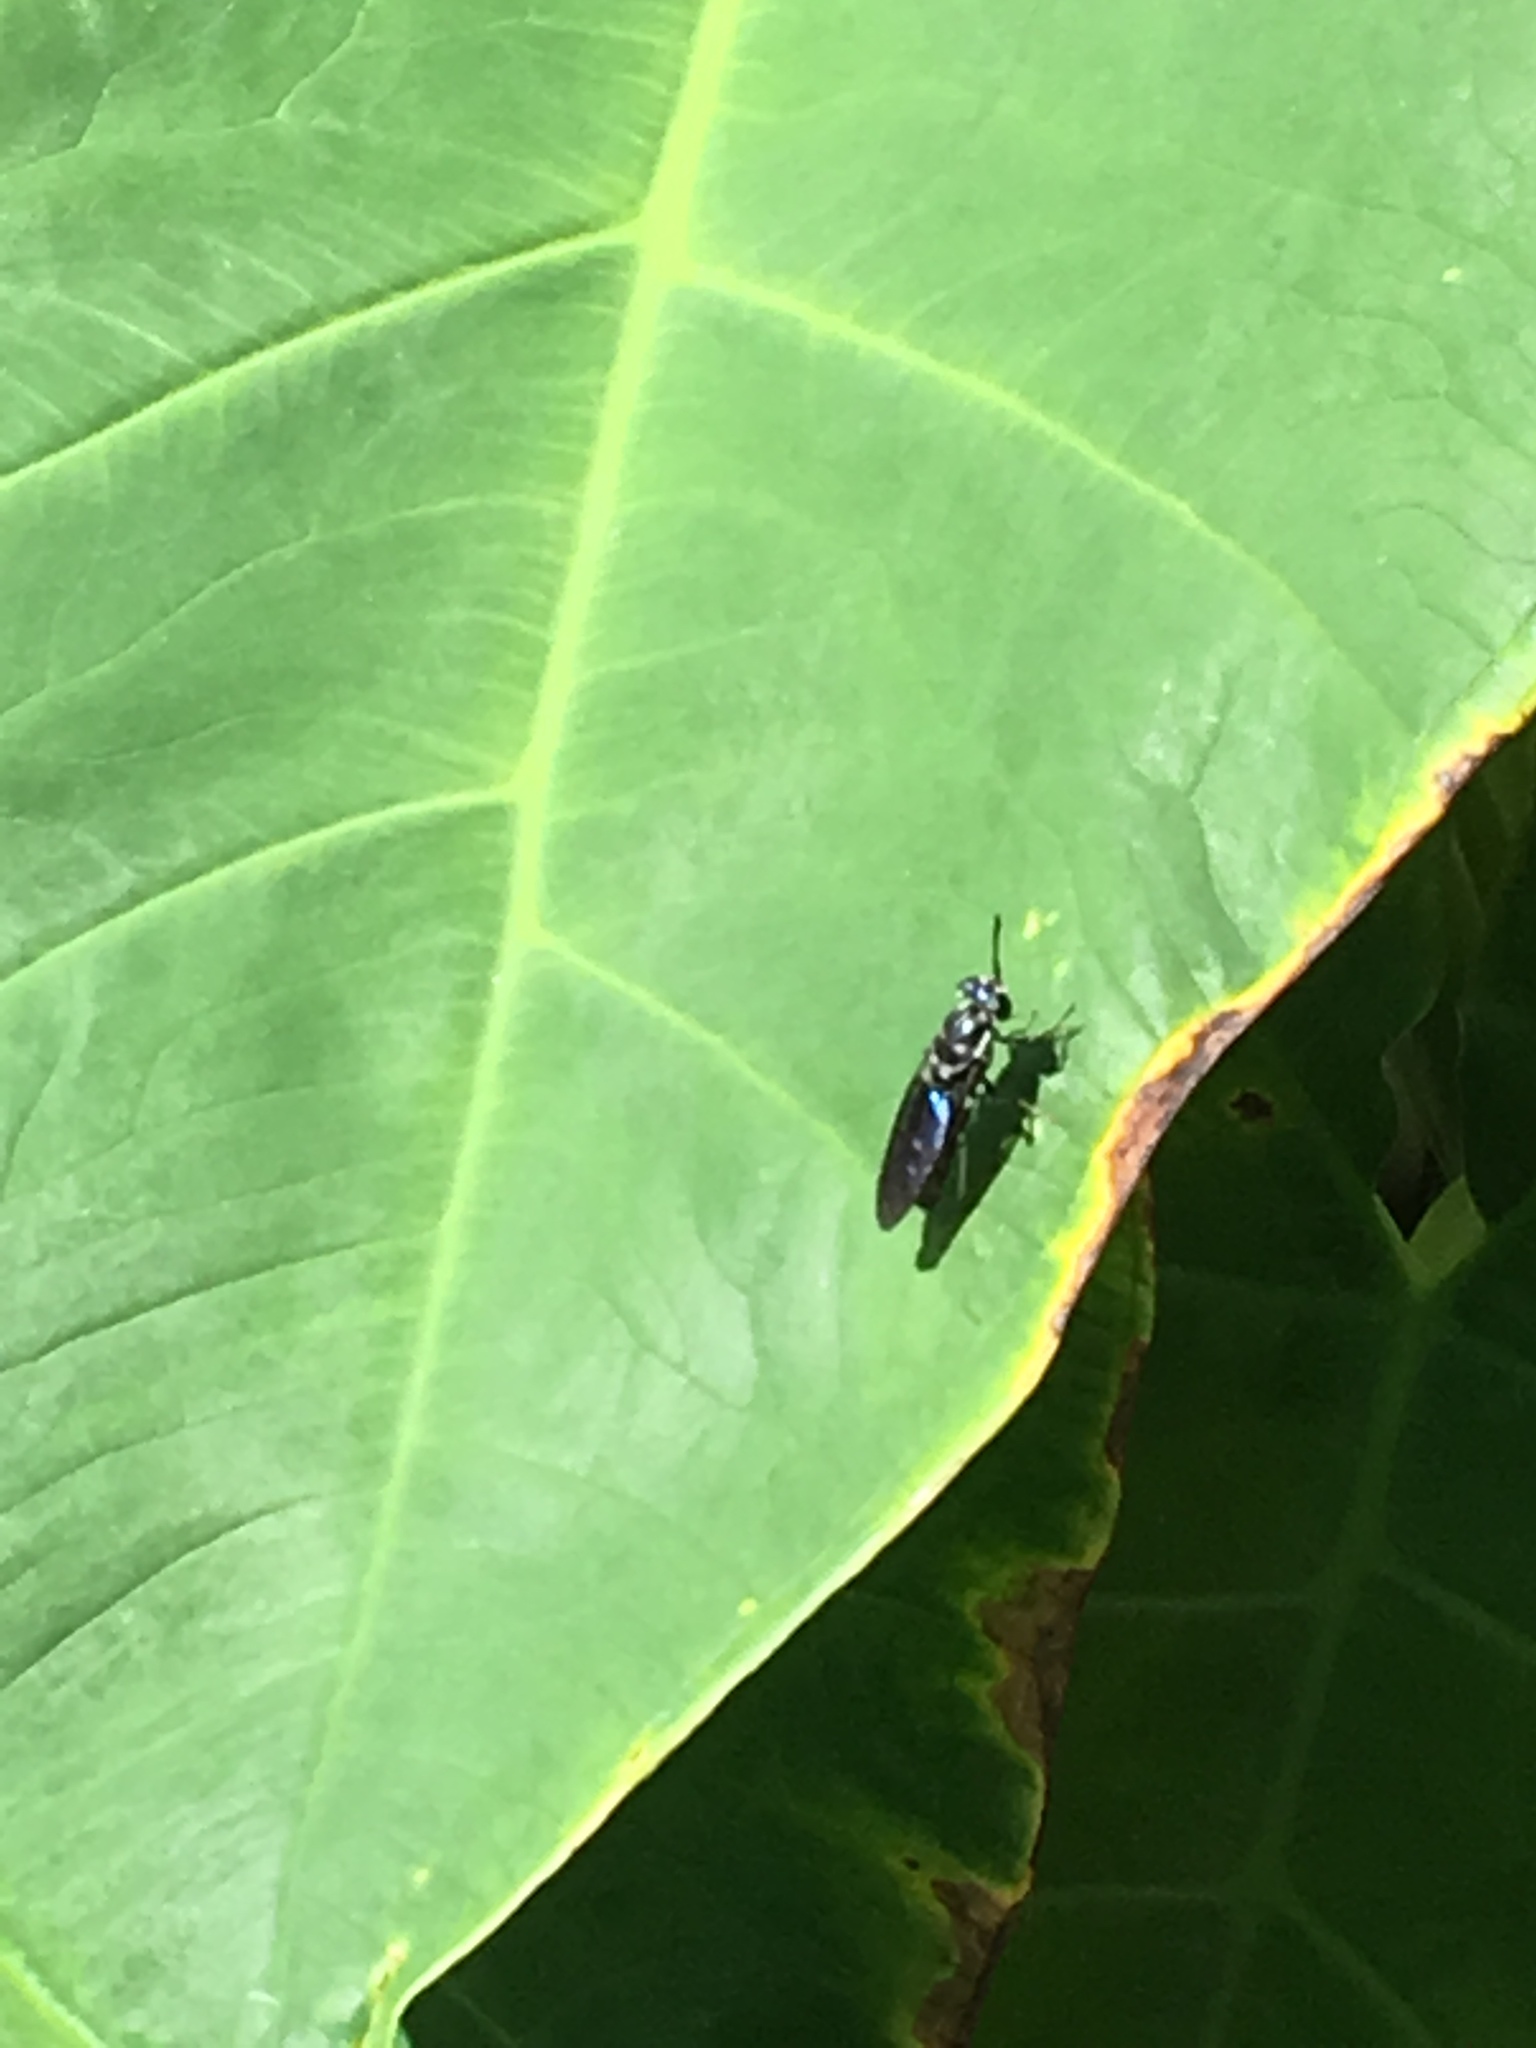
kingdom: Animalia
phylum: Arthropoda
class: Insecta
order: Diptera
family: Stratiomyidae
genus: Hermetia
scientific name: Hermetia illucens
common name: Black soldier fly
